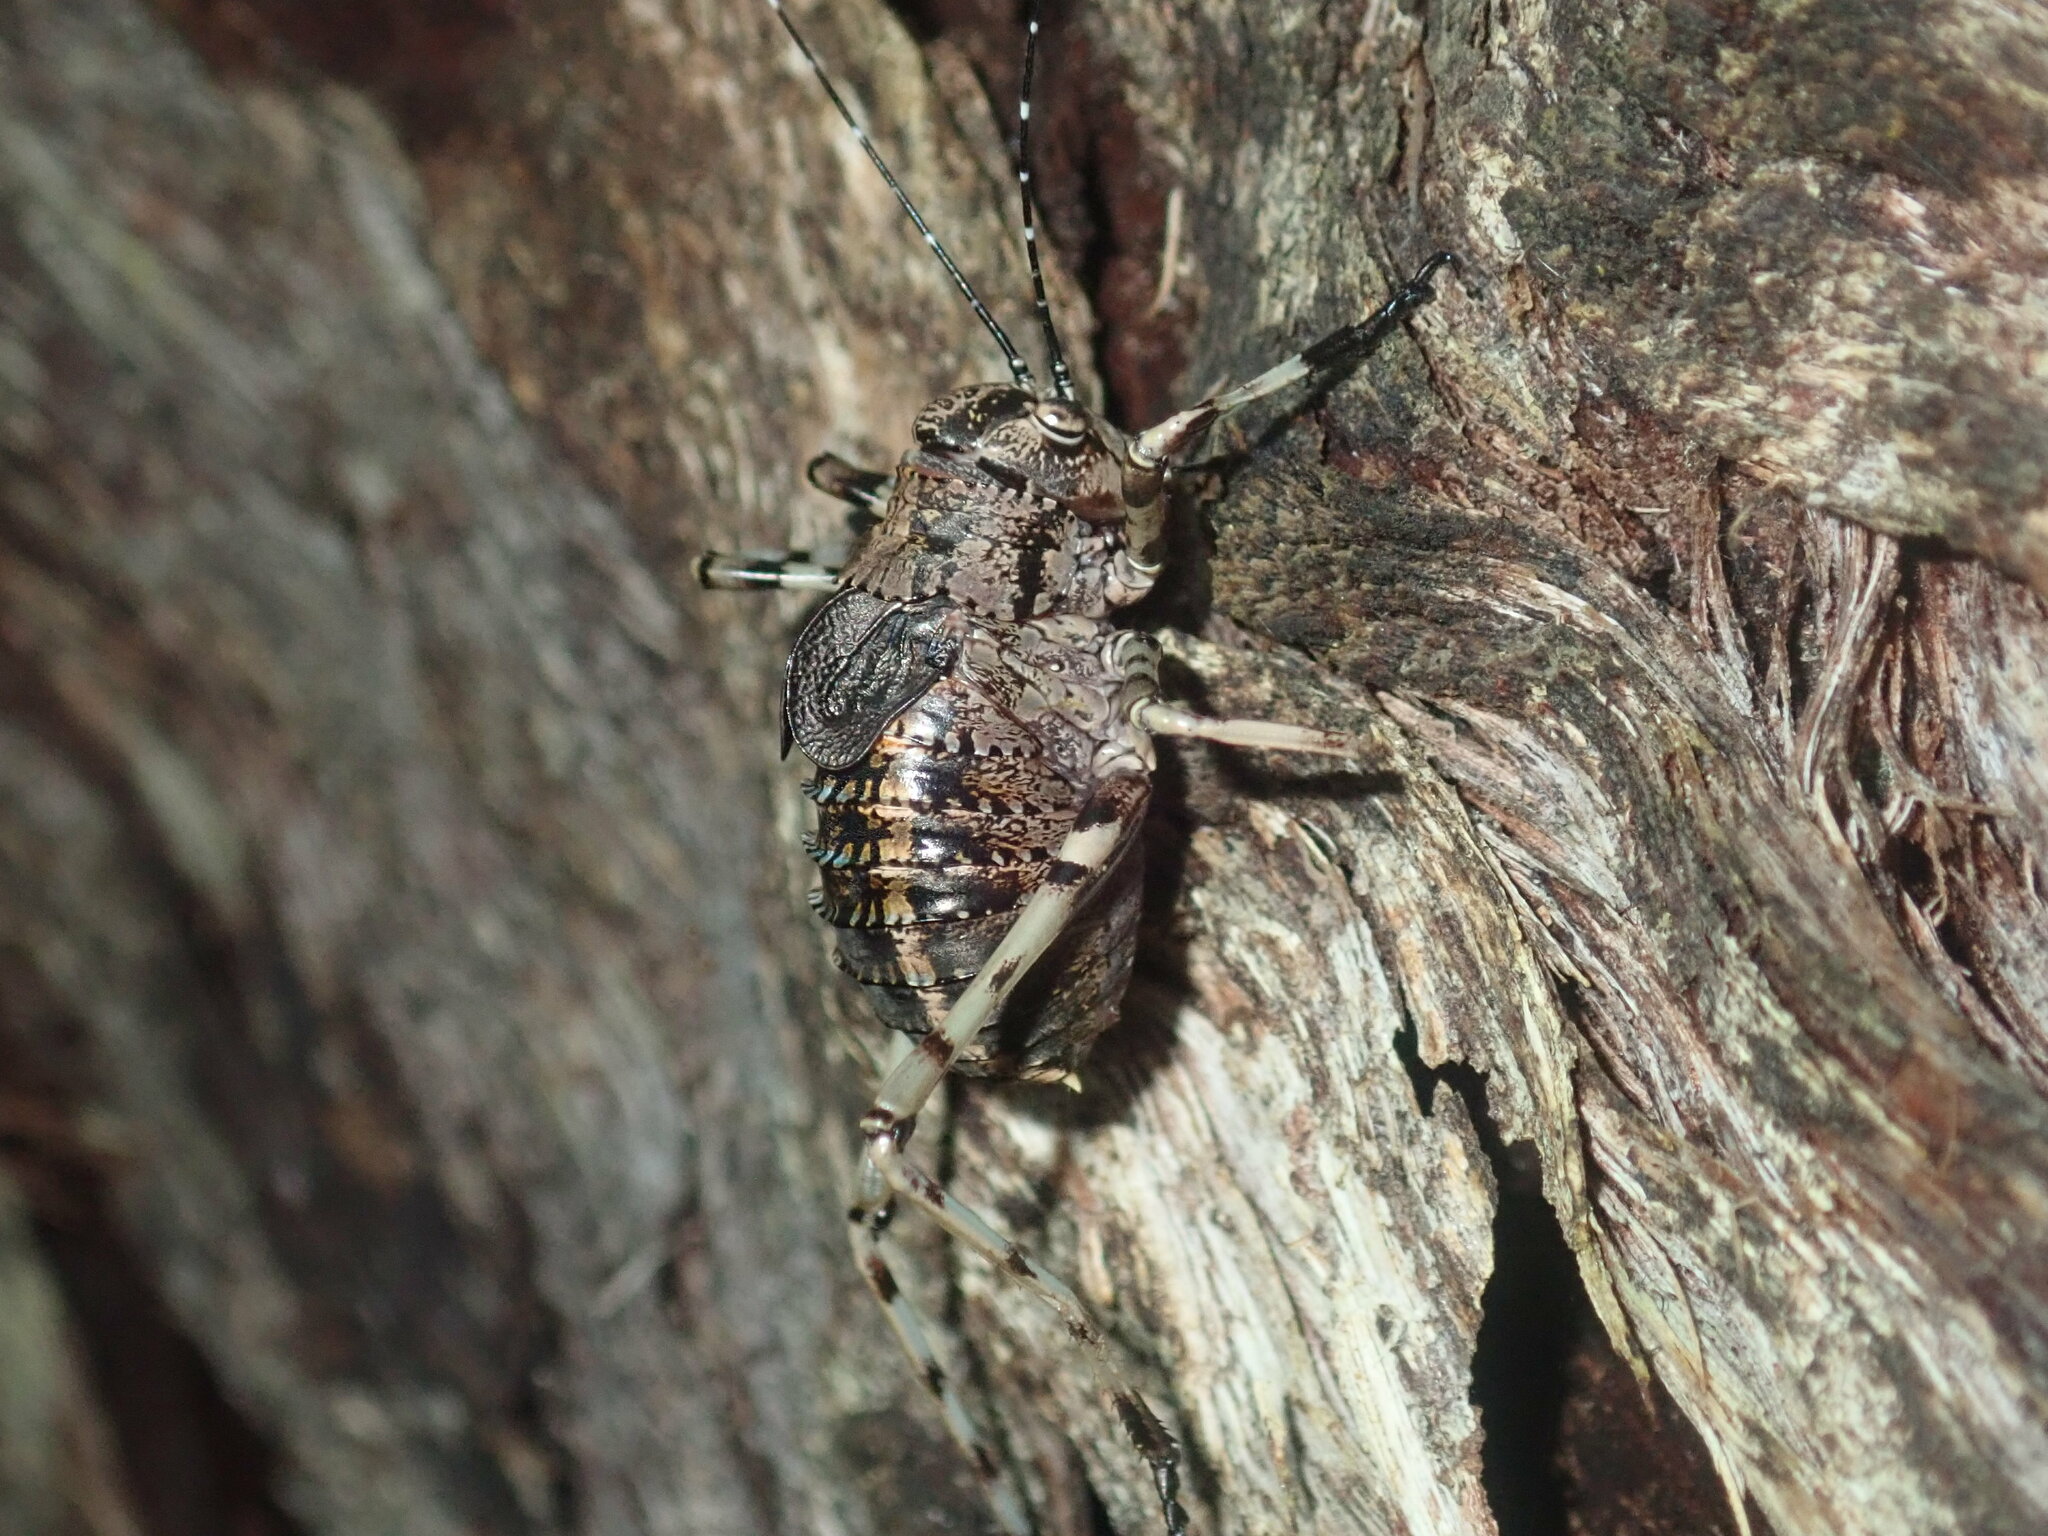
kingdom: Animalia
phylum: Arthropoda
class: Insecta
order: Orthoptera
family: Tettigoniidae
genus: Acripeza
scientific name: Acripeza reticulata
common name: Mountain katydid
